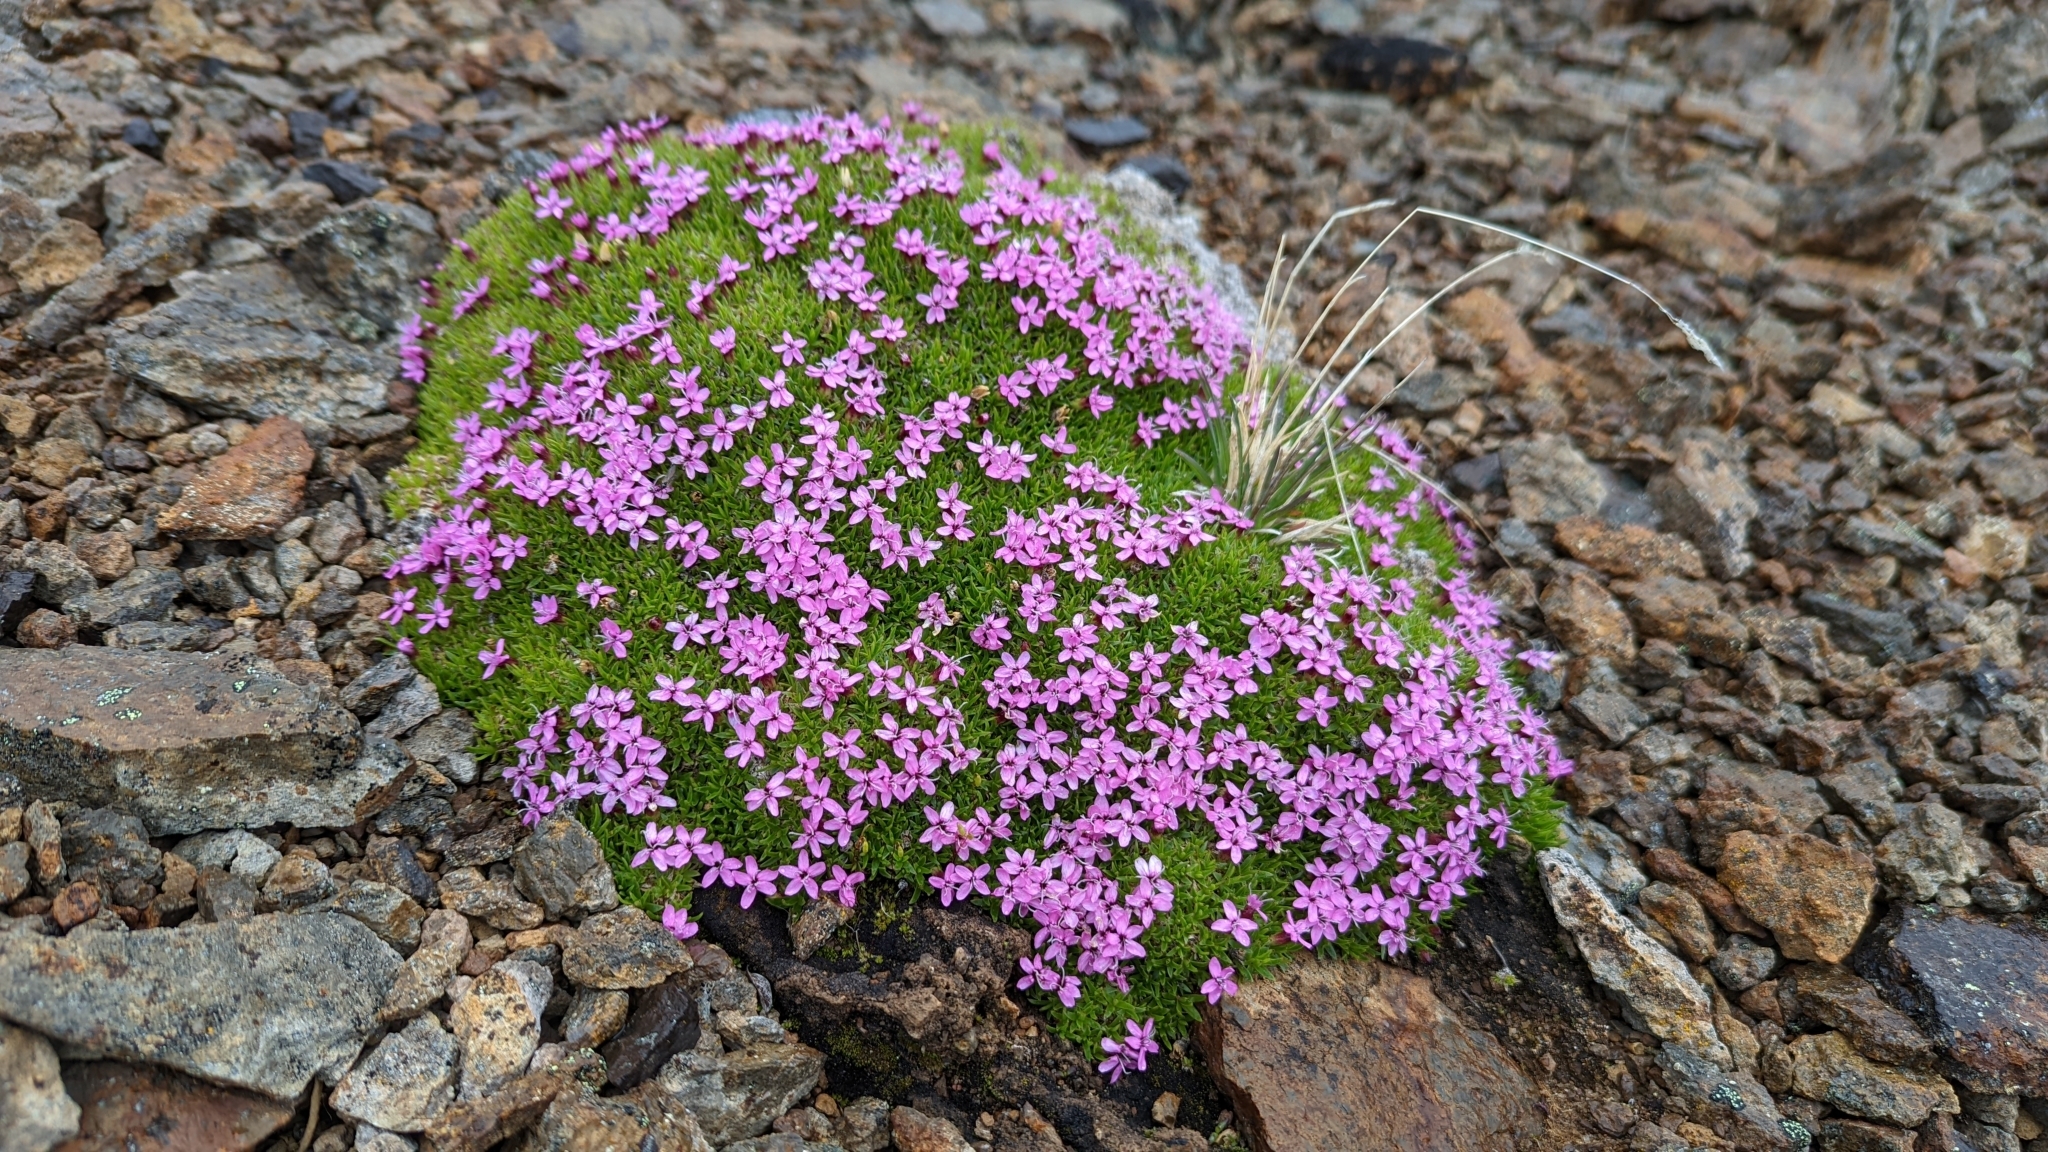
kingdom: Plantae
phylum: Tracheophyta
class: Magnoliopsida
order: Caryophyllales
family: Caryophyllaceae
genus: Silene
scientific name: Silene acaulis
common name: Moss campion
